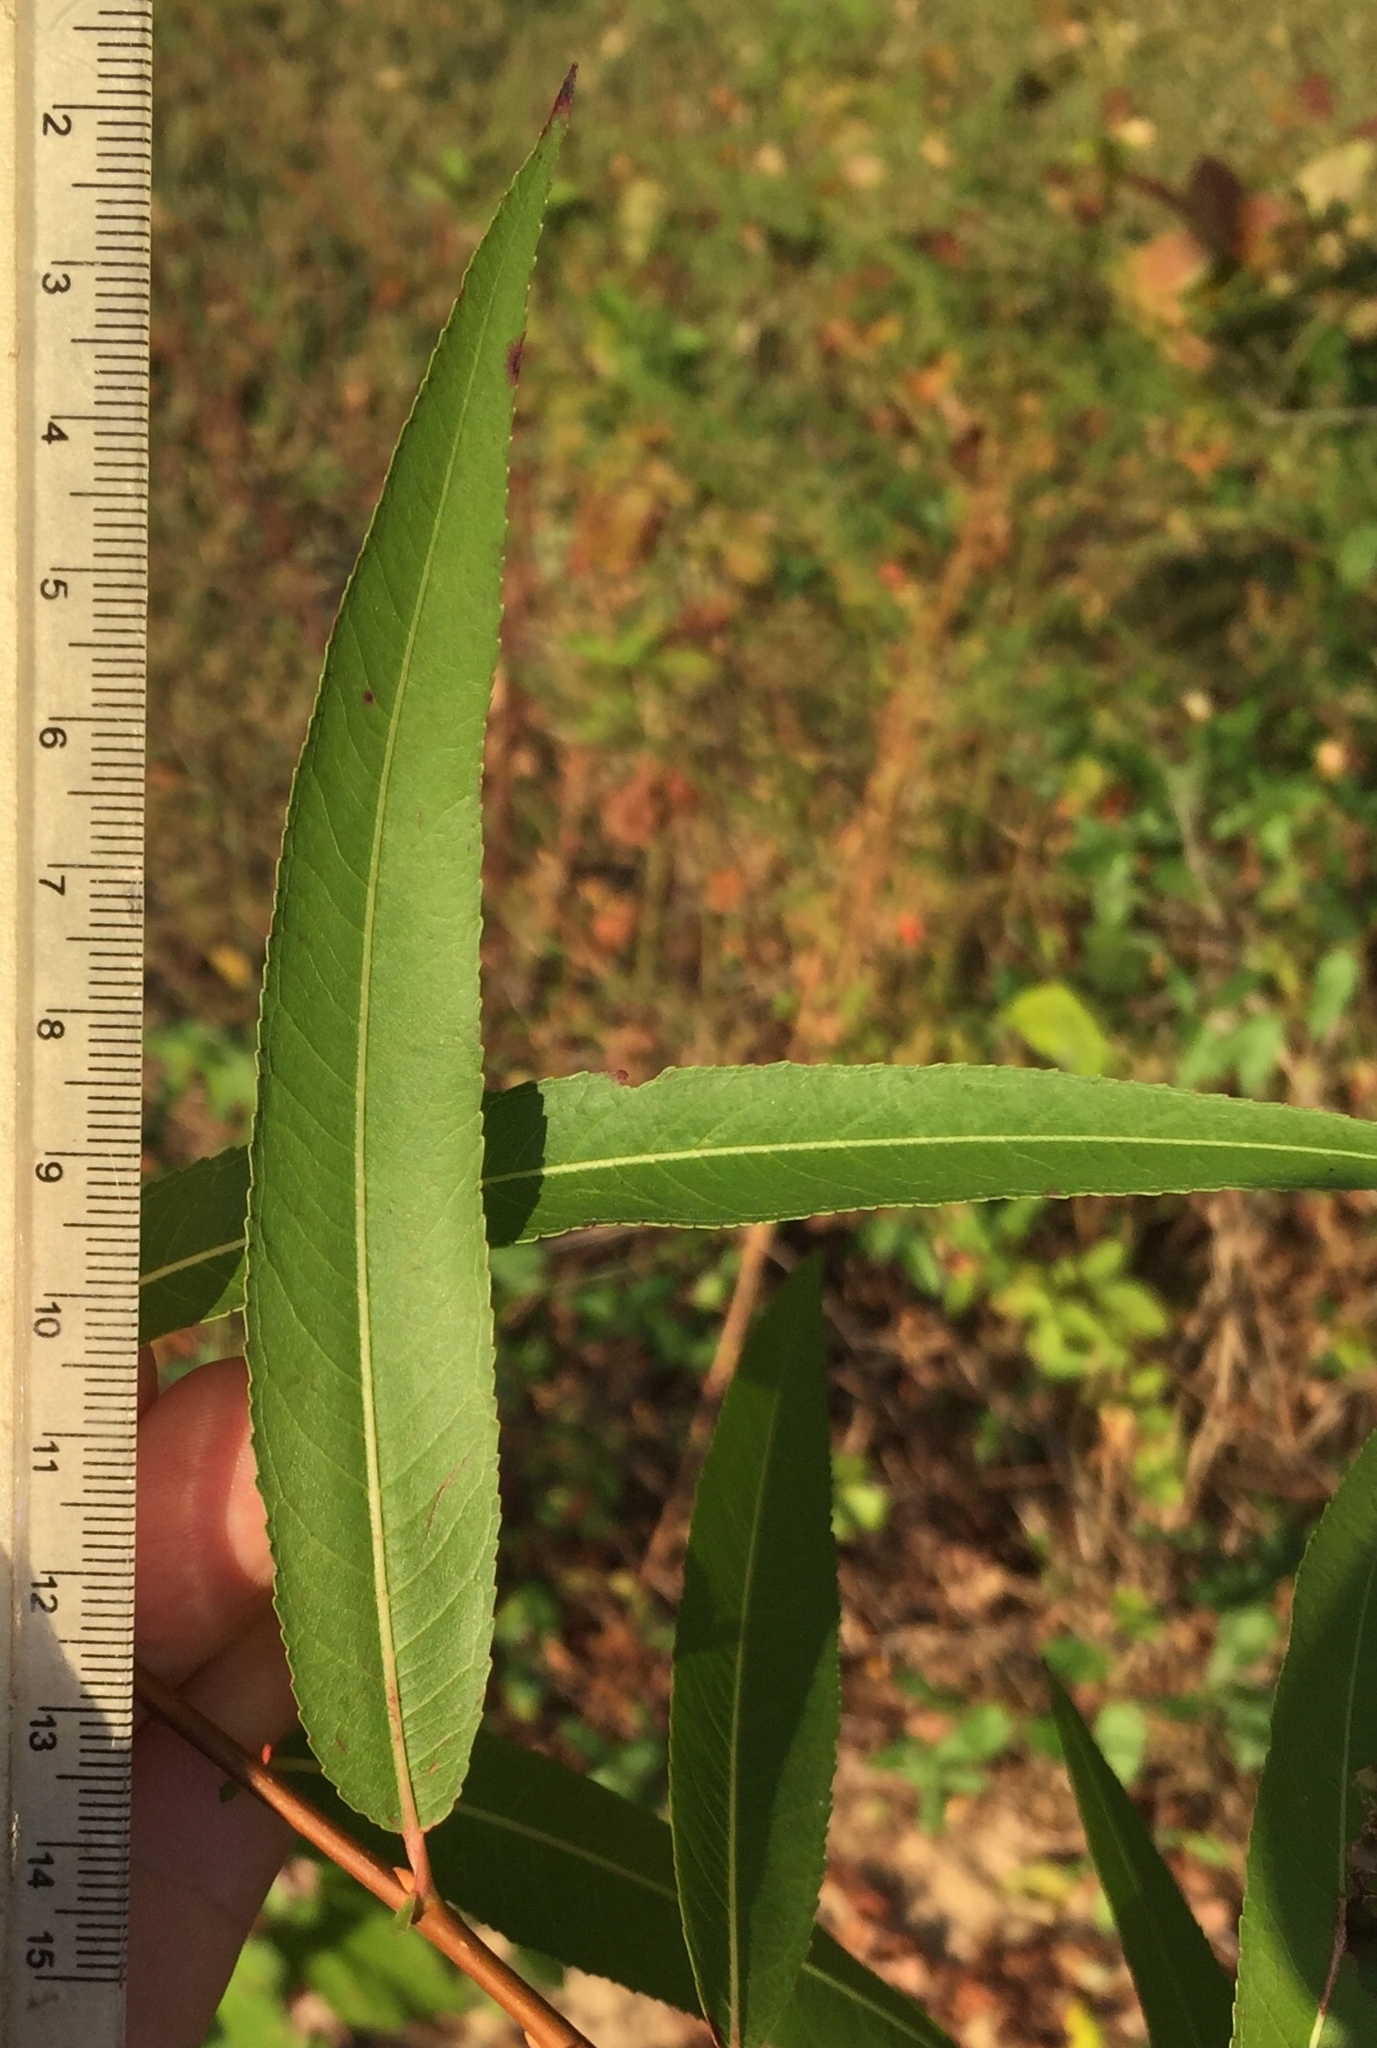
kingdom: Plantae
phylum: Tracheophyta
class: Magnoliopsida
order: Malpighiales
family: Salicaceae
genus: Salix
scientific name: Salix nigra
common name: Black willow
